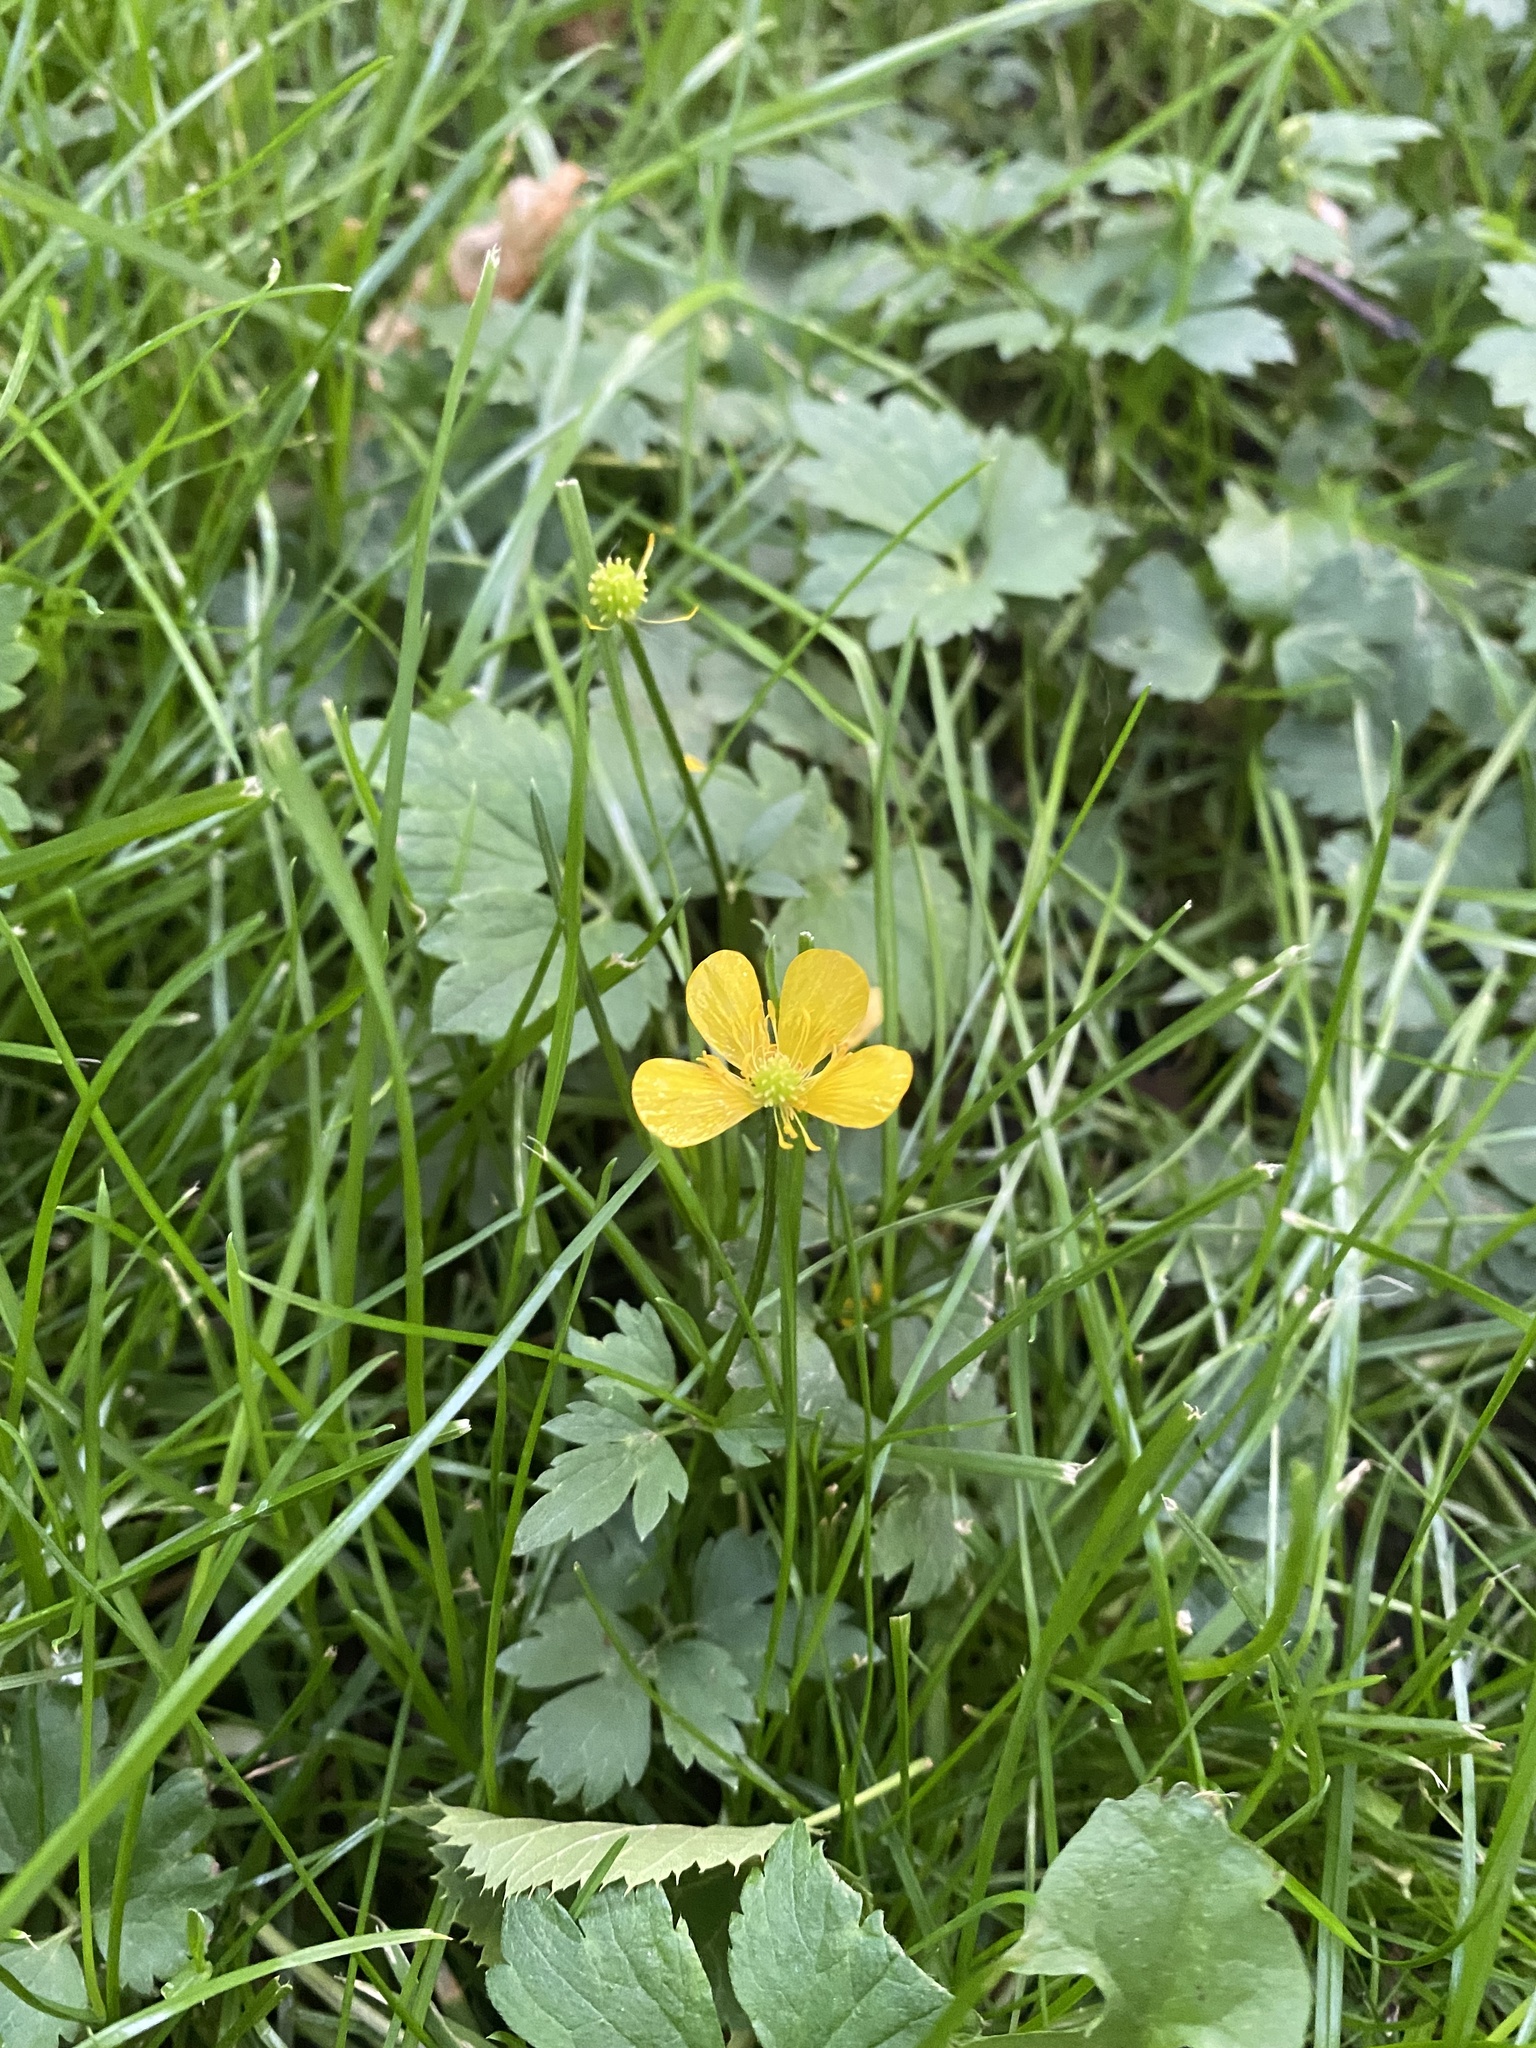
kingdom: Plantae
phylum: Tracheophyta
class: Magnoliopsida
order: Ranunculales
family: Ranunculaceae
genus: Ranunculus
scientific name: Ranunculus repens
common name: Creeping buttercup
